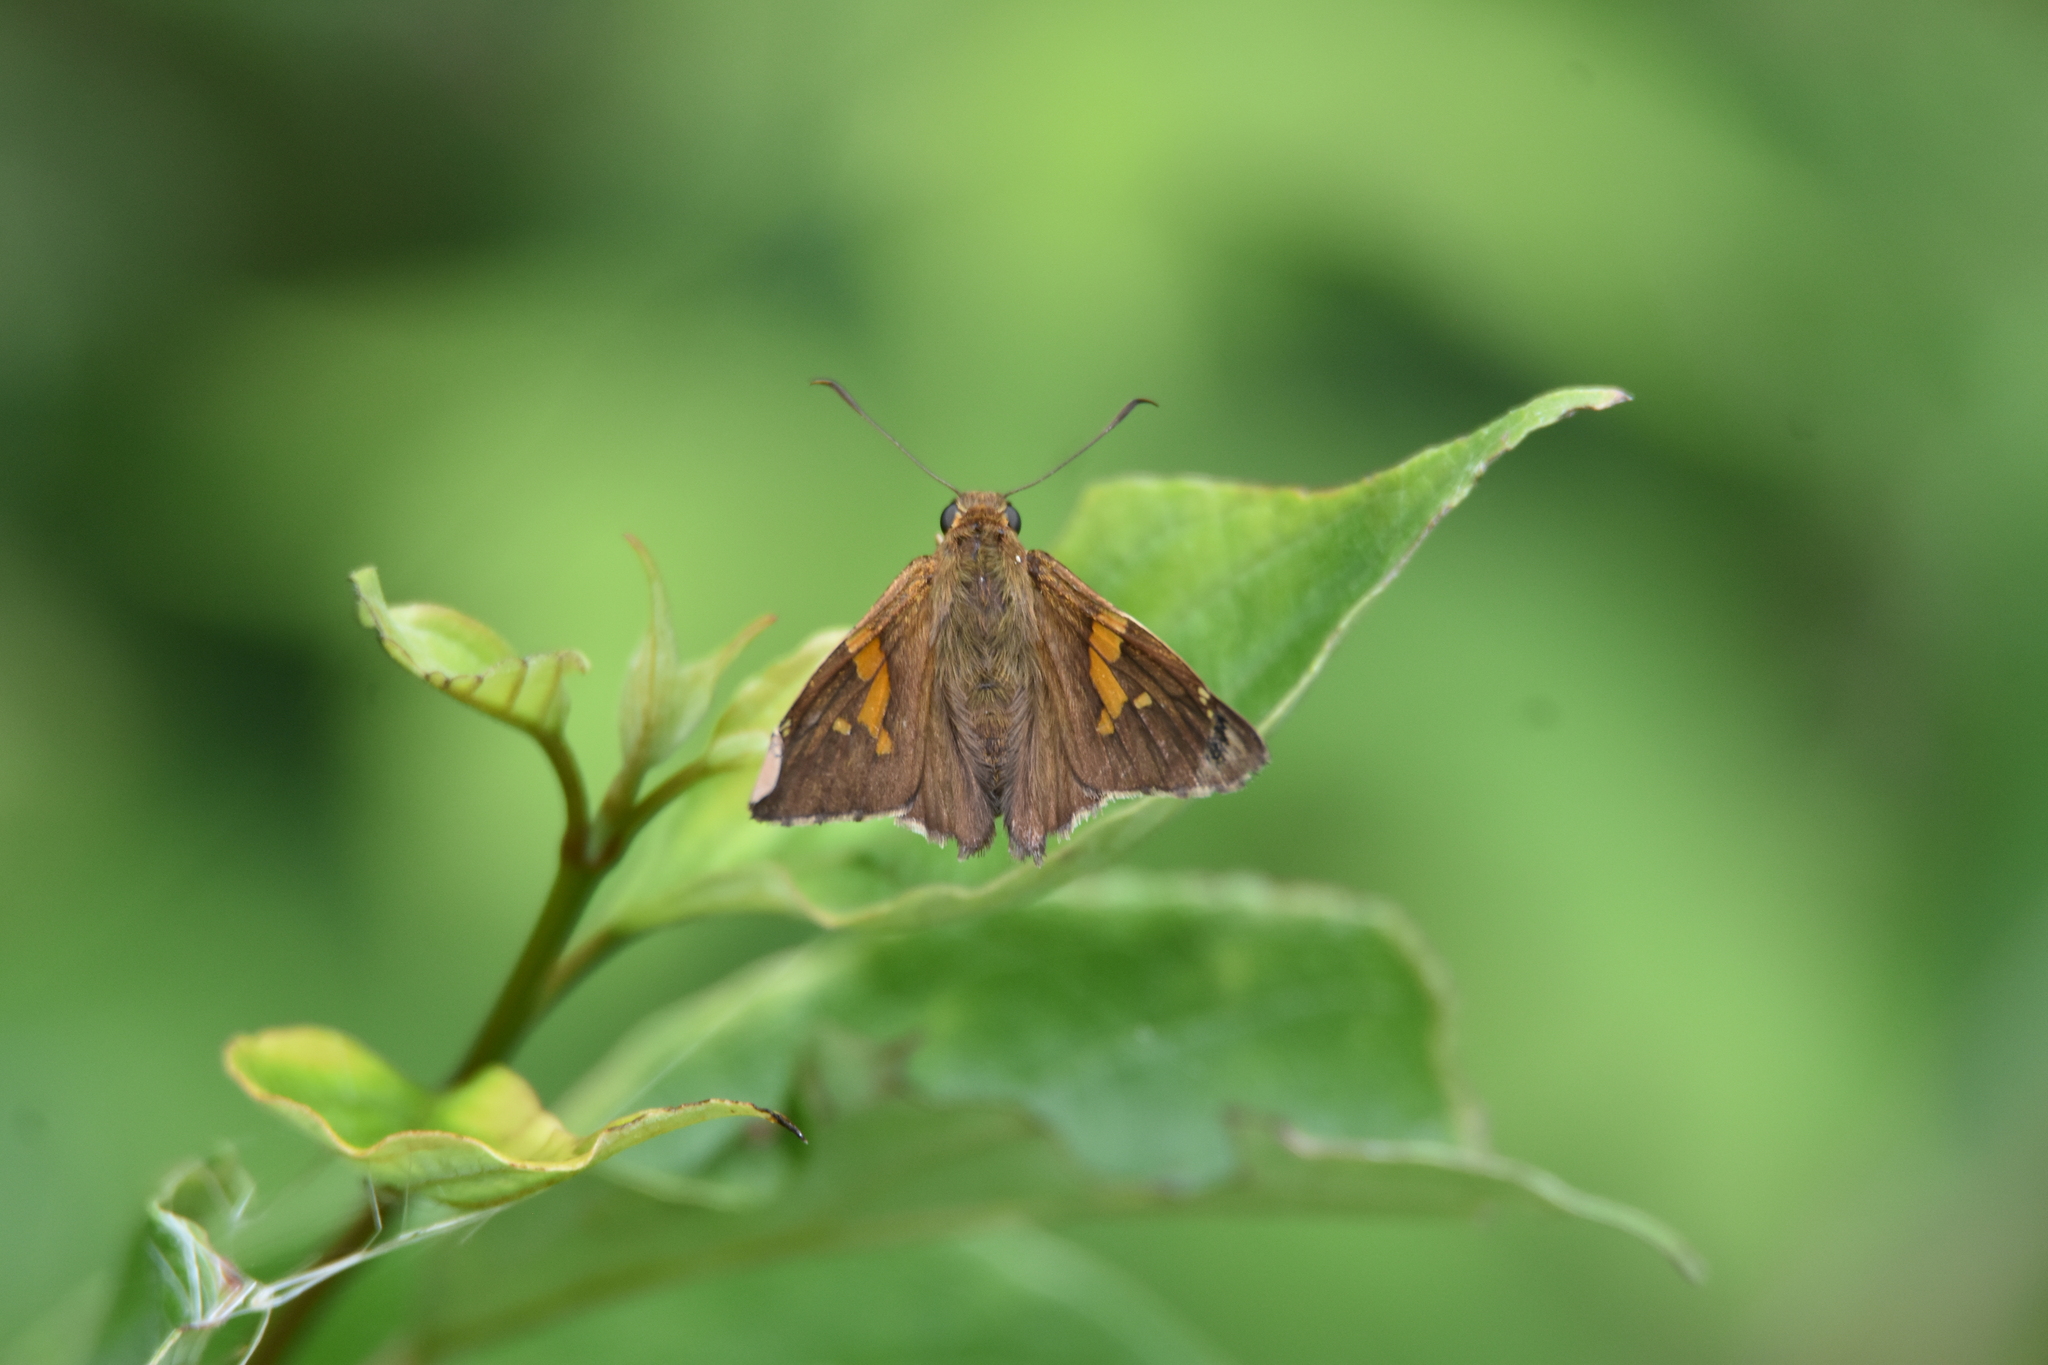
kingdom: Animalia
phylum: Arthropoda
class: Insecta
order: Lepidoptera
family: Hesperiidae
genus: Epargyreus
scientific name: Epargyreus clarus
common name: Silver-spotted skipper
